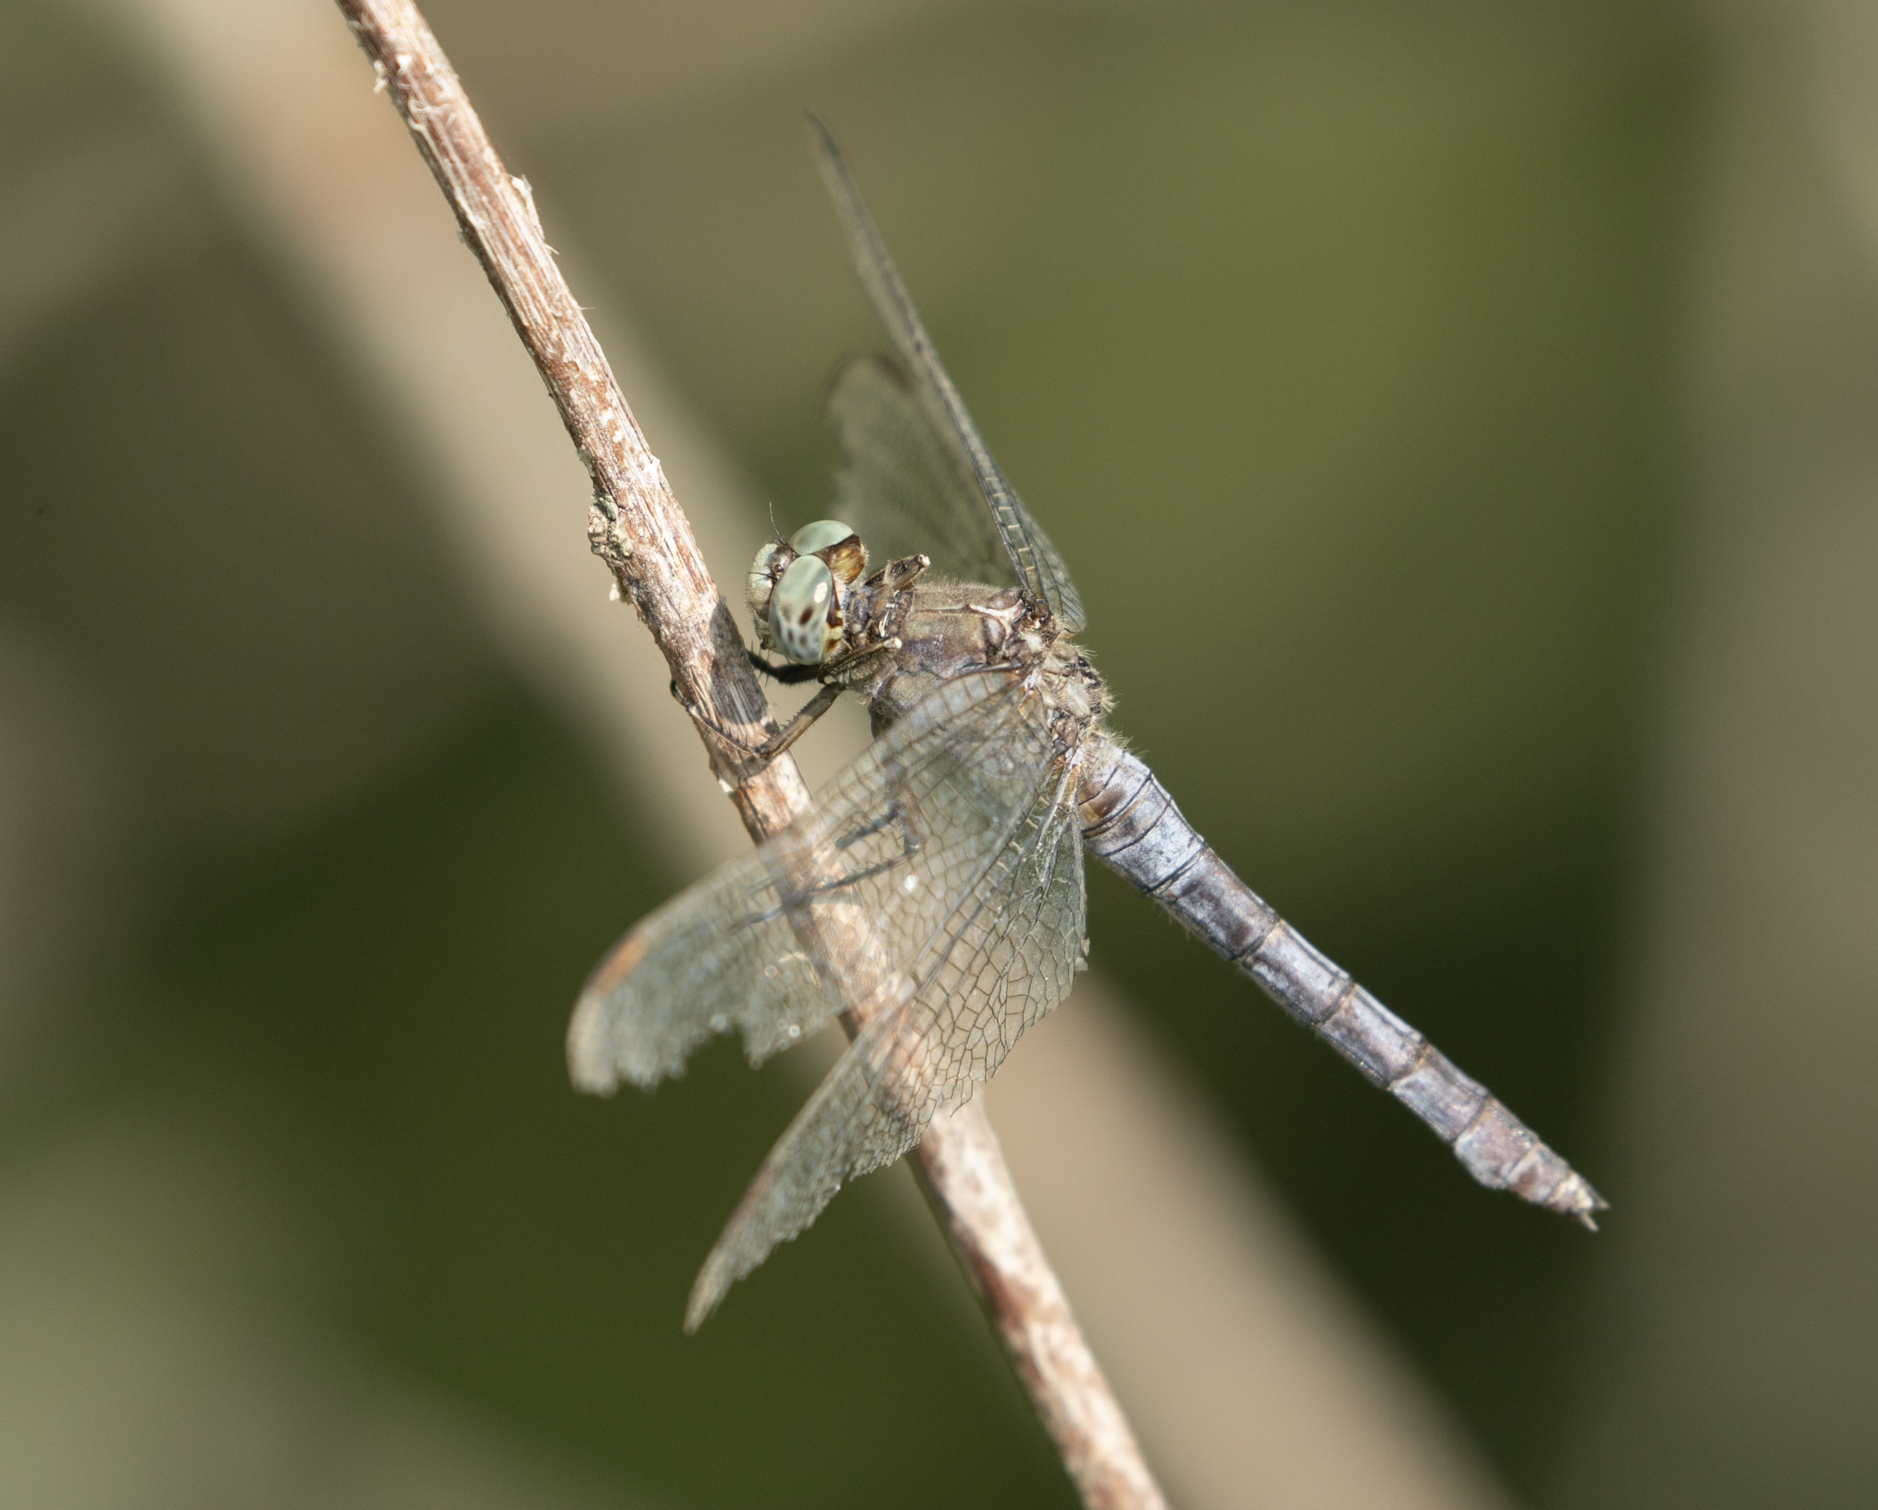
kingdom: Animalia
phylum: Arthropoda
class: Insecta
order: Odonata
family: Libellulidae
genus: Orthetrum
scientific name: Orthetrum coerulescens
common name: Keeled skimmer
